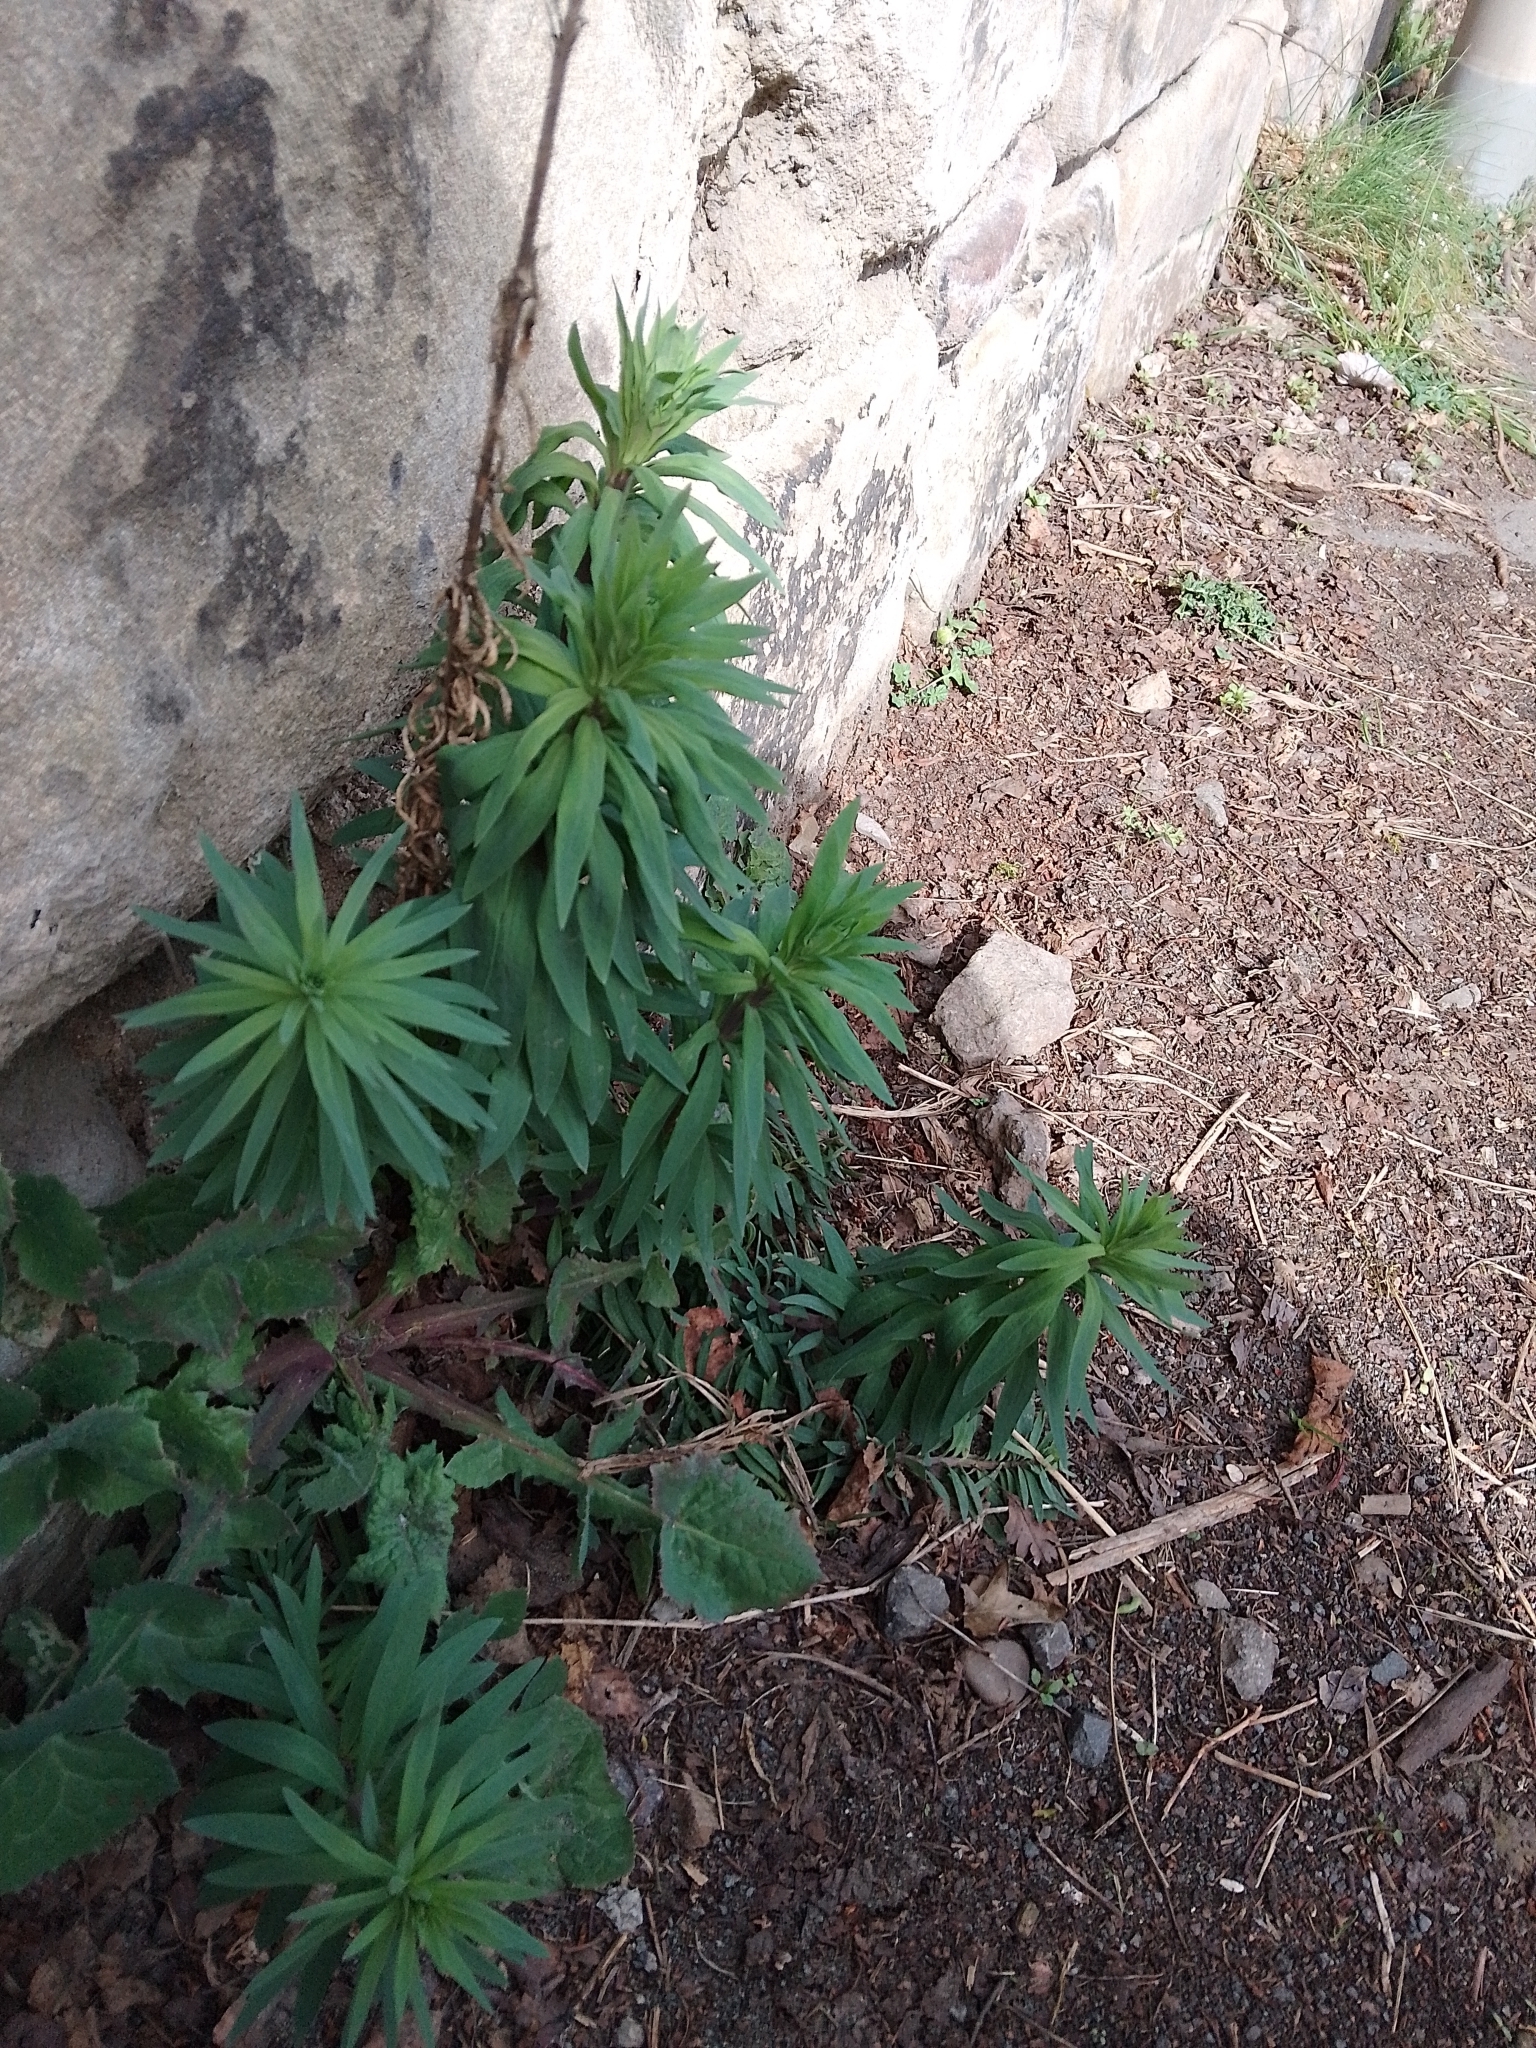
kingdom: Plantae
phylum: Tracheophyta
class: Magnoliopsida
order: Lamiales
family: Plantaginaceae
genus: Linaria
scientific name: Linaria purpurea
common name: Purple toadflax
